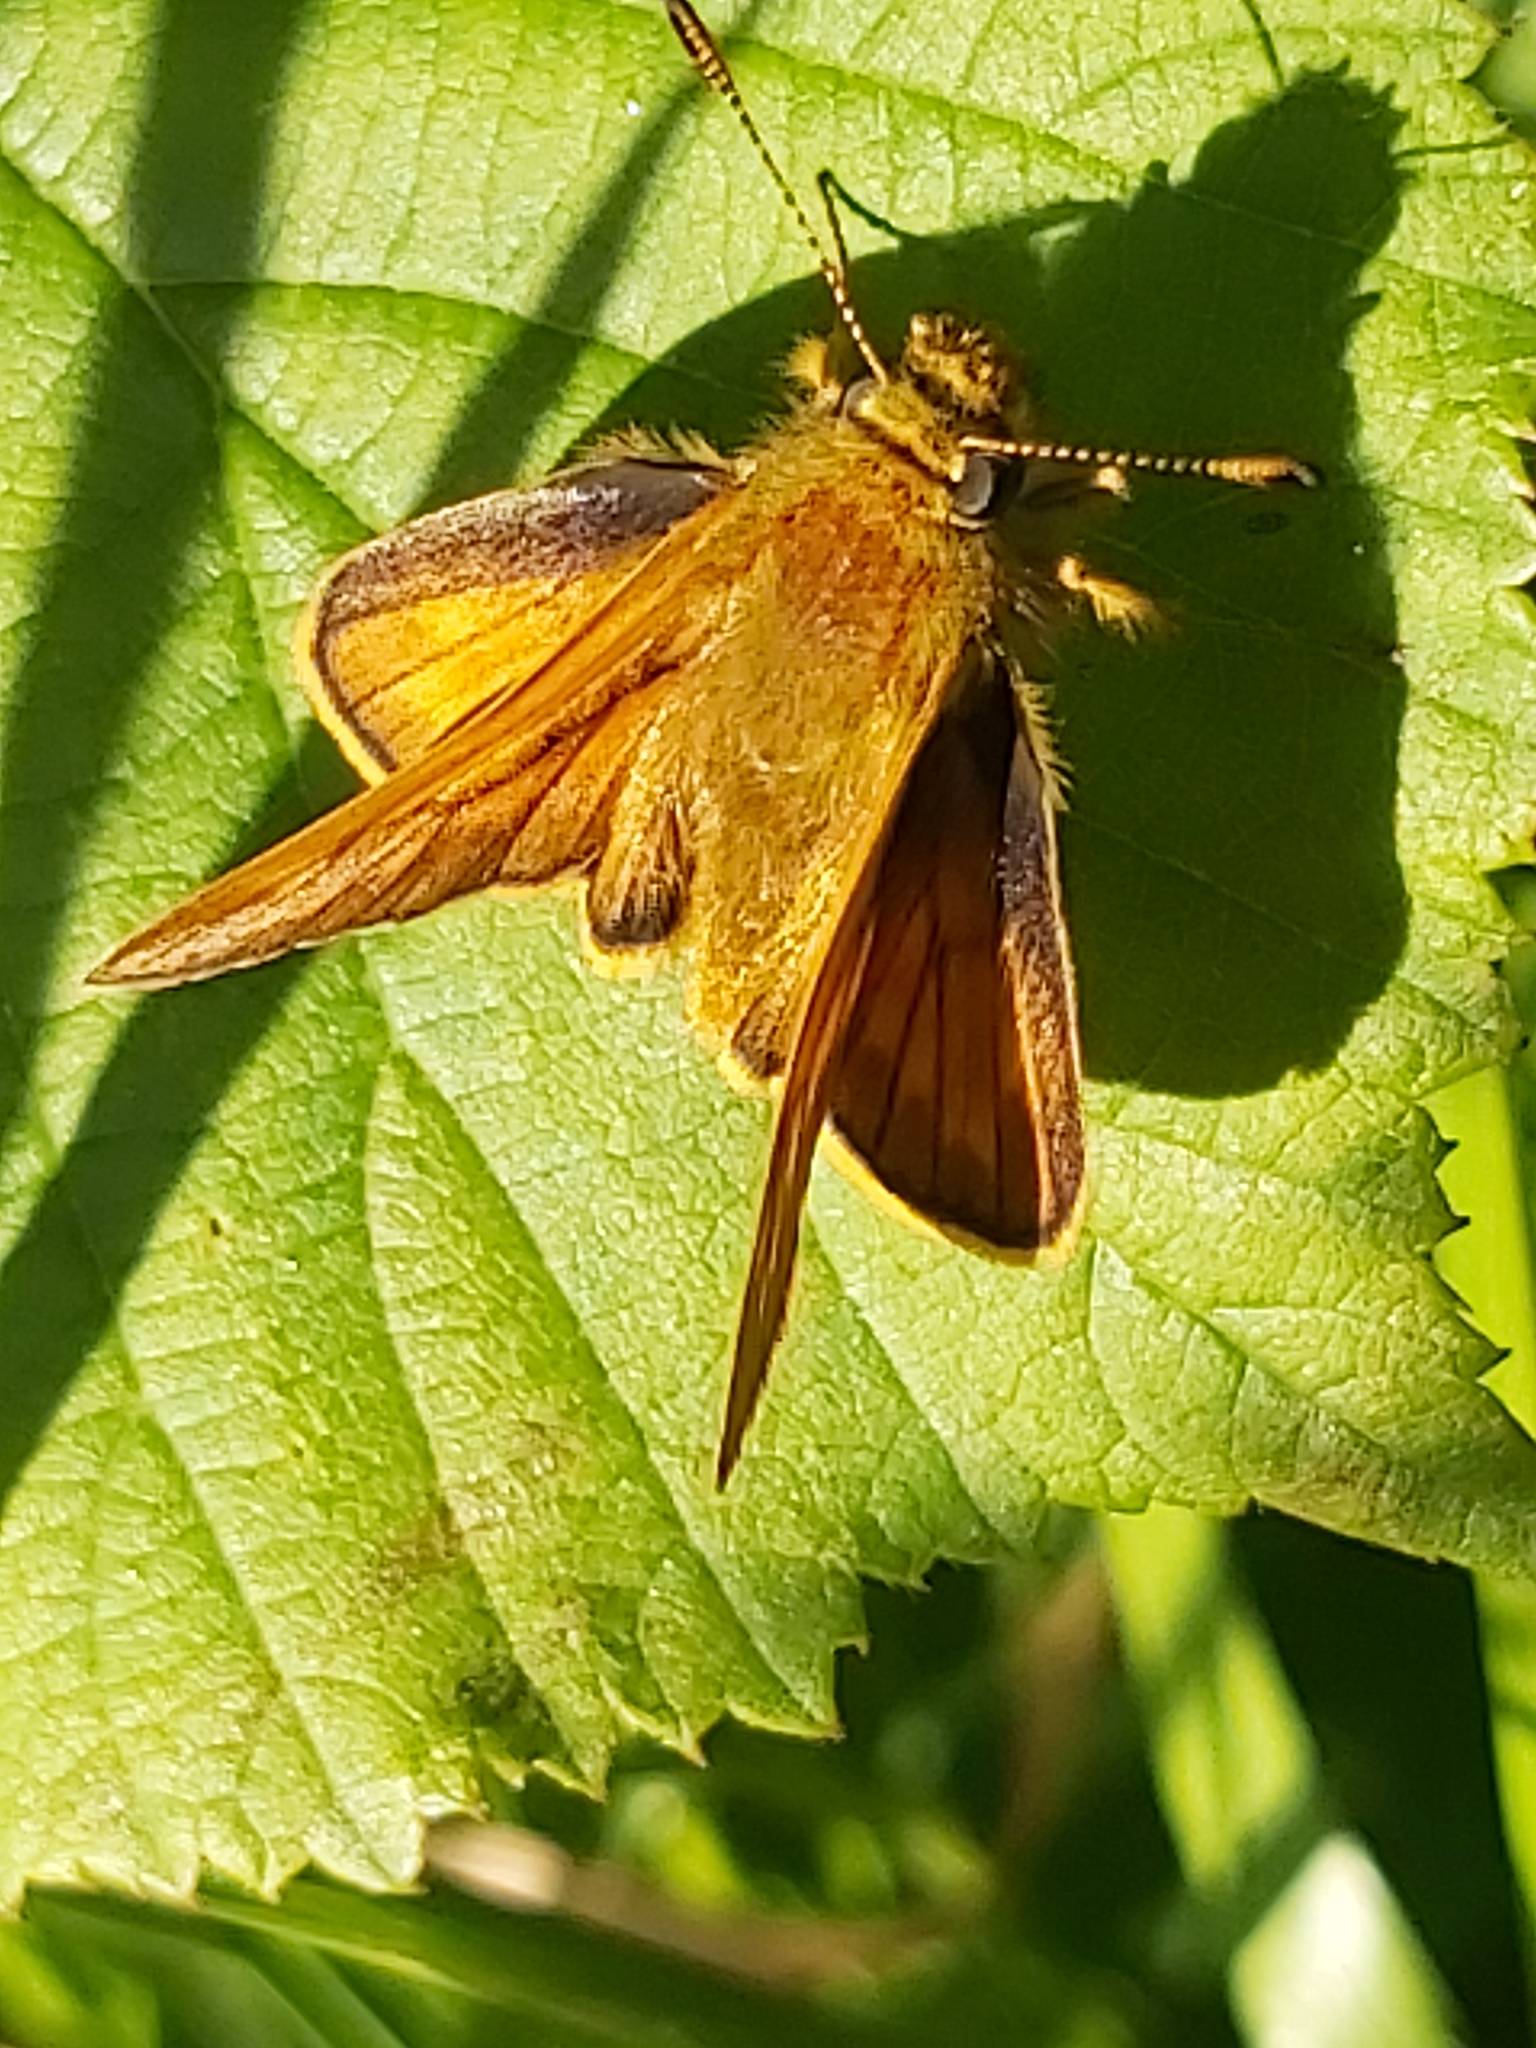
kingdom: Animalia
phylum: Arthropoda
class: Insecta
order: Lepidoptera
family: Hesperiidae
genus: Ochlodes
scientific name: Ochlodes venata
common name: Large skipper
